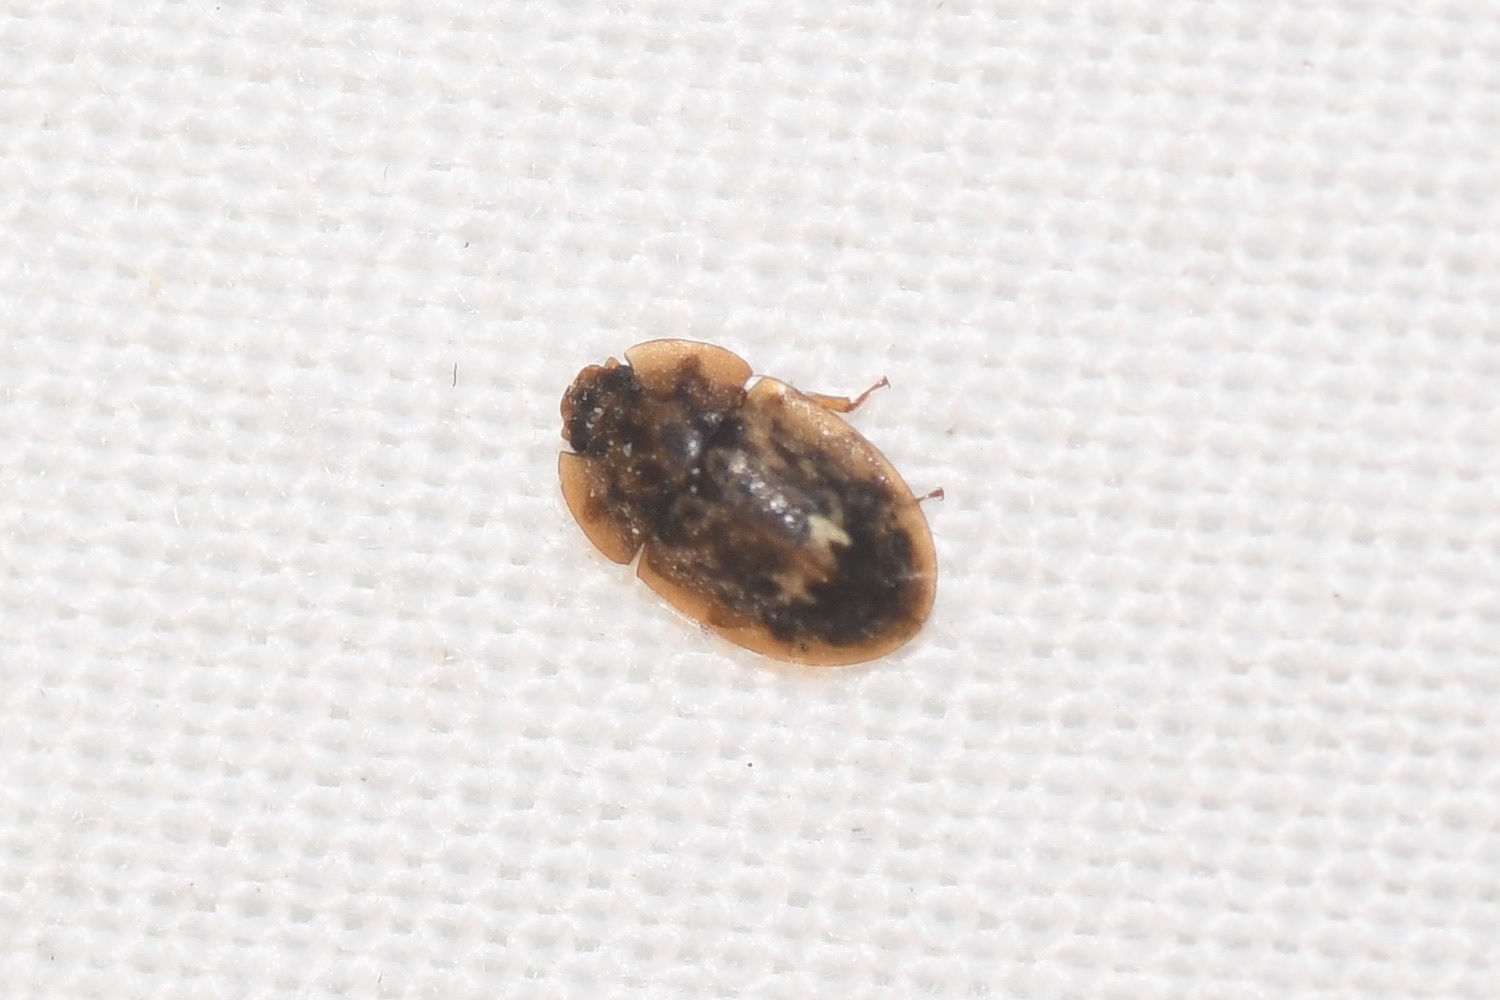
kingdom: Animalia
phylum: Arthropoda
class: Insecta
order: Coleoptera
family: Nitidulidae
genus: Lobiopa
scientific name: Lobiopa undulata
